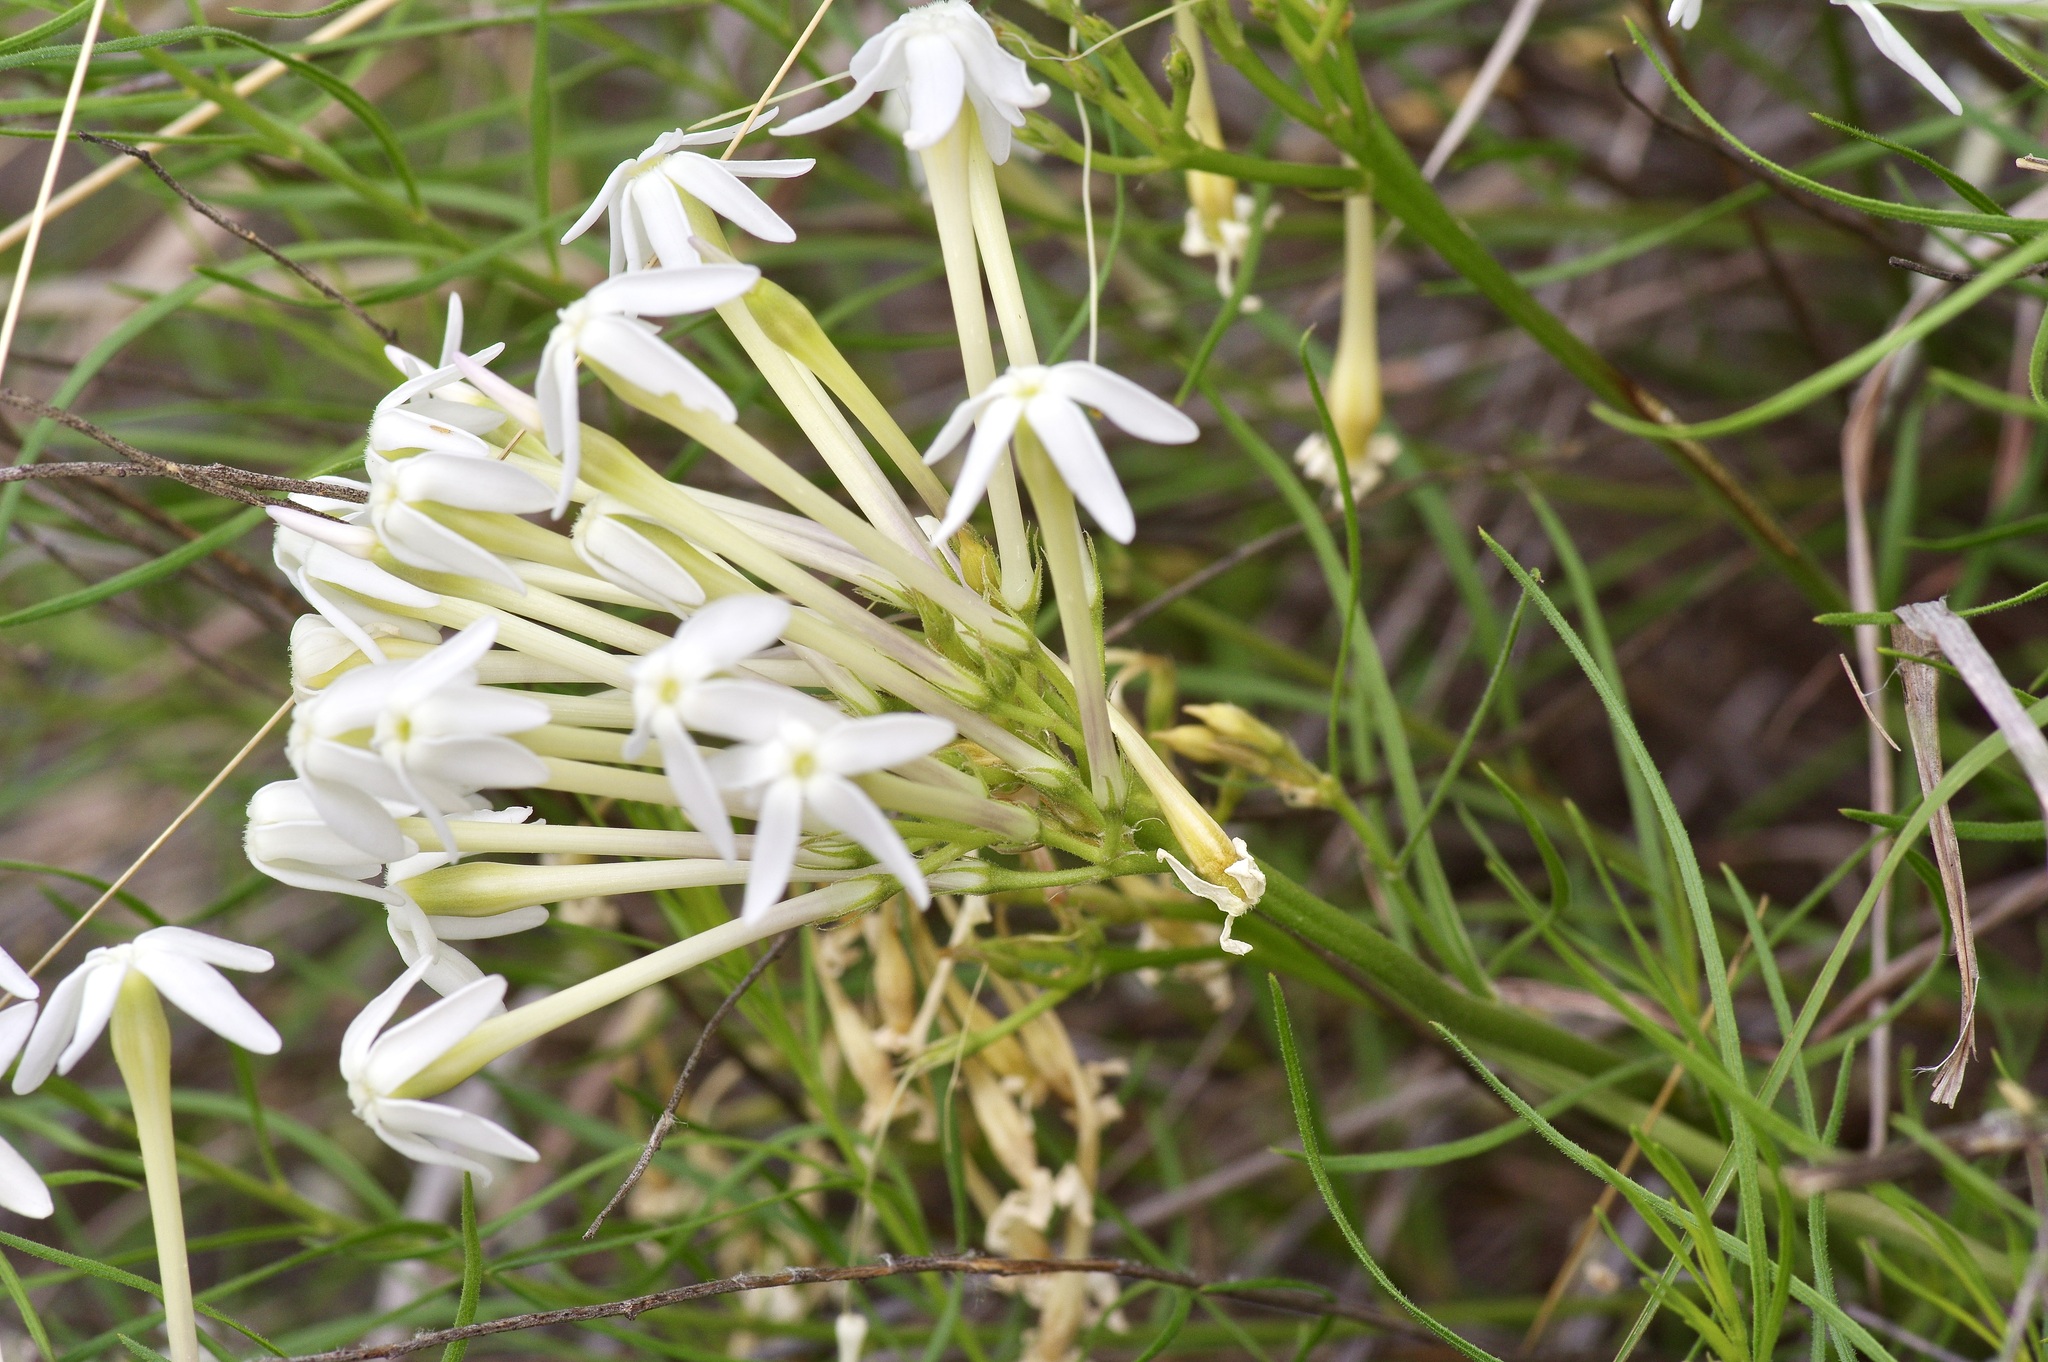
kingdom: Plantae
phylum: Tracheophyta
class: Magnoliopsida
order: Gentianales
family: Apocynaceae
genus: Amsonia
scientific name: Amsonia longiflora
